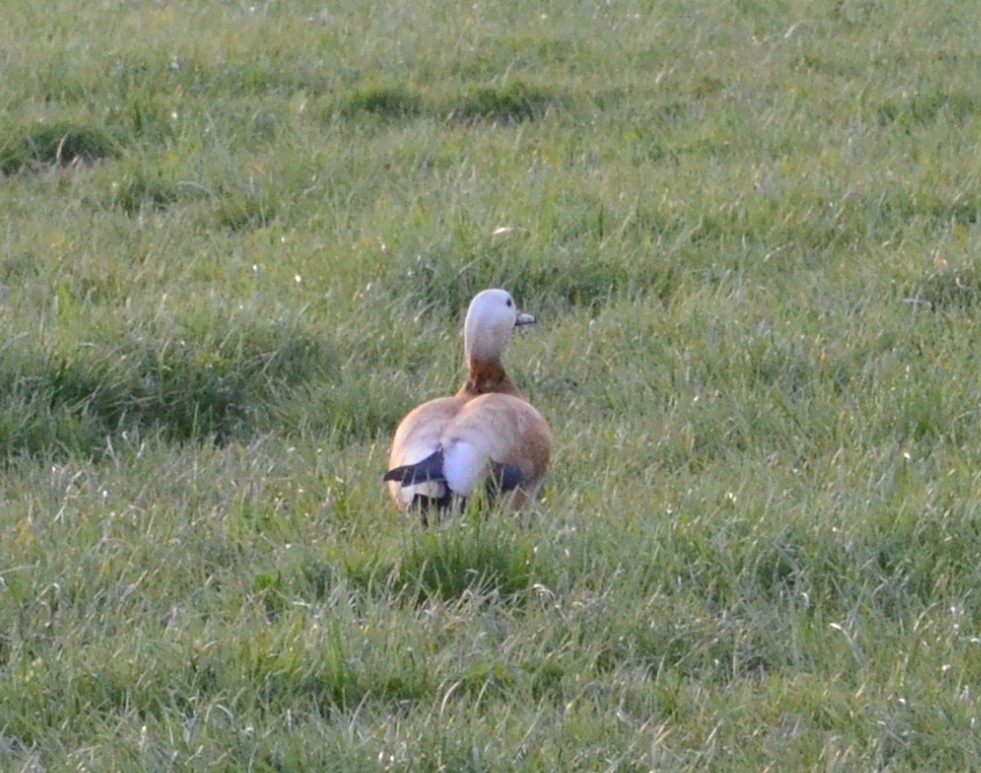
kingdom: Animalia
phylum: Chordata
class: Aves
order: Anseriformes
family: Anatidae
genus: Tadorna
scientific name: Tadorna ferruginea
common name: Ruddy shelduck
